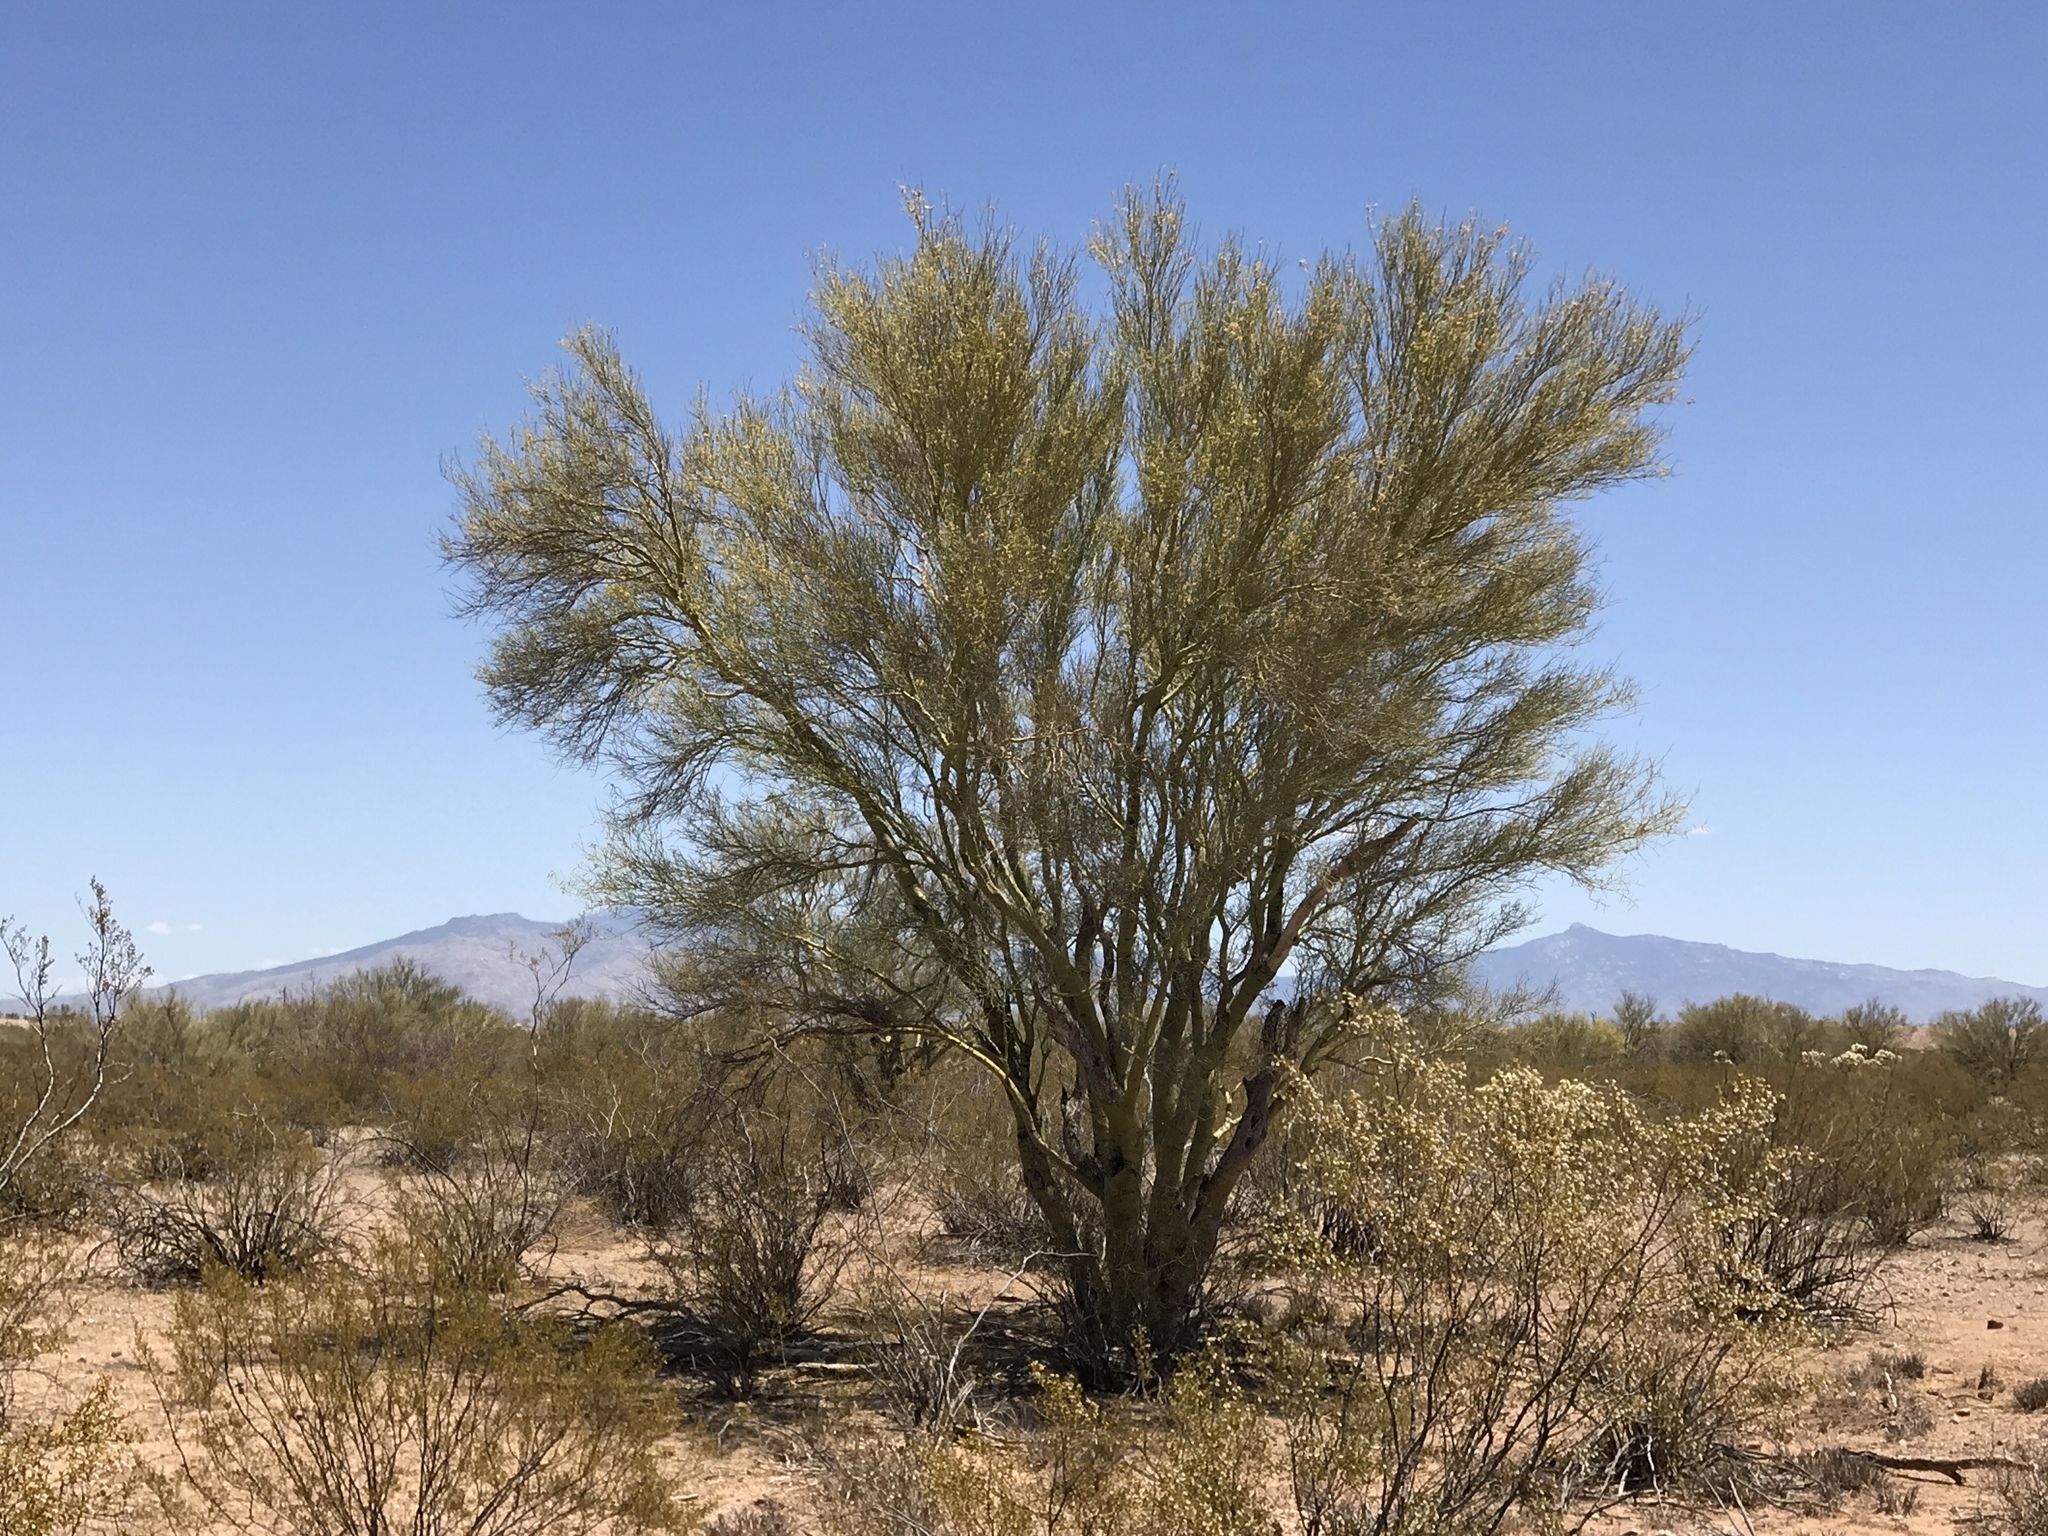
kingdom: Plantae
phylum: Tracheophyta
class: Magnoliopsida
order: Fabales
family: Fabaceae
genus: Parkinsonia
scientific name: Parkinsonia microphylla
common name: Yellow paloverde
